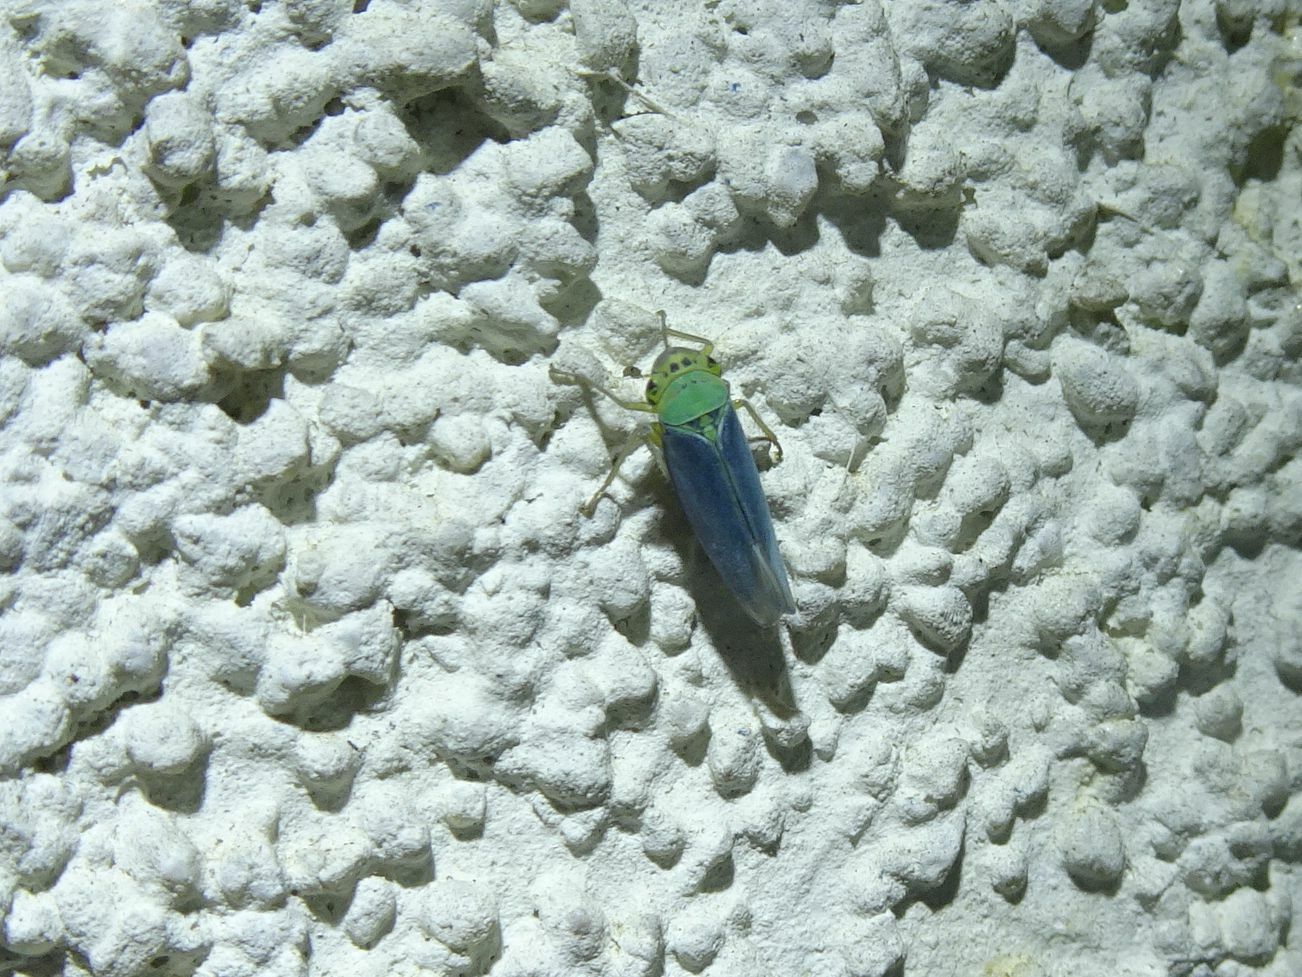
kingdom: Animalia
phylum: Arthropoda
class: Insecta
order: Hemiptera
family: Cicadellidae
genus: Cicadella
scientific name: Cicadella viridis
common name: Leafhopper
